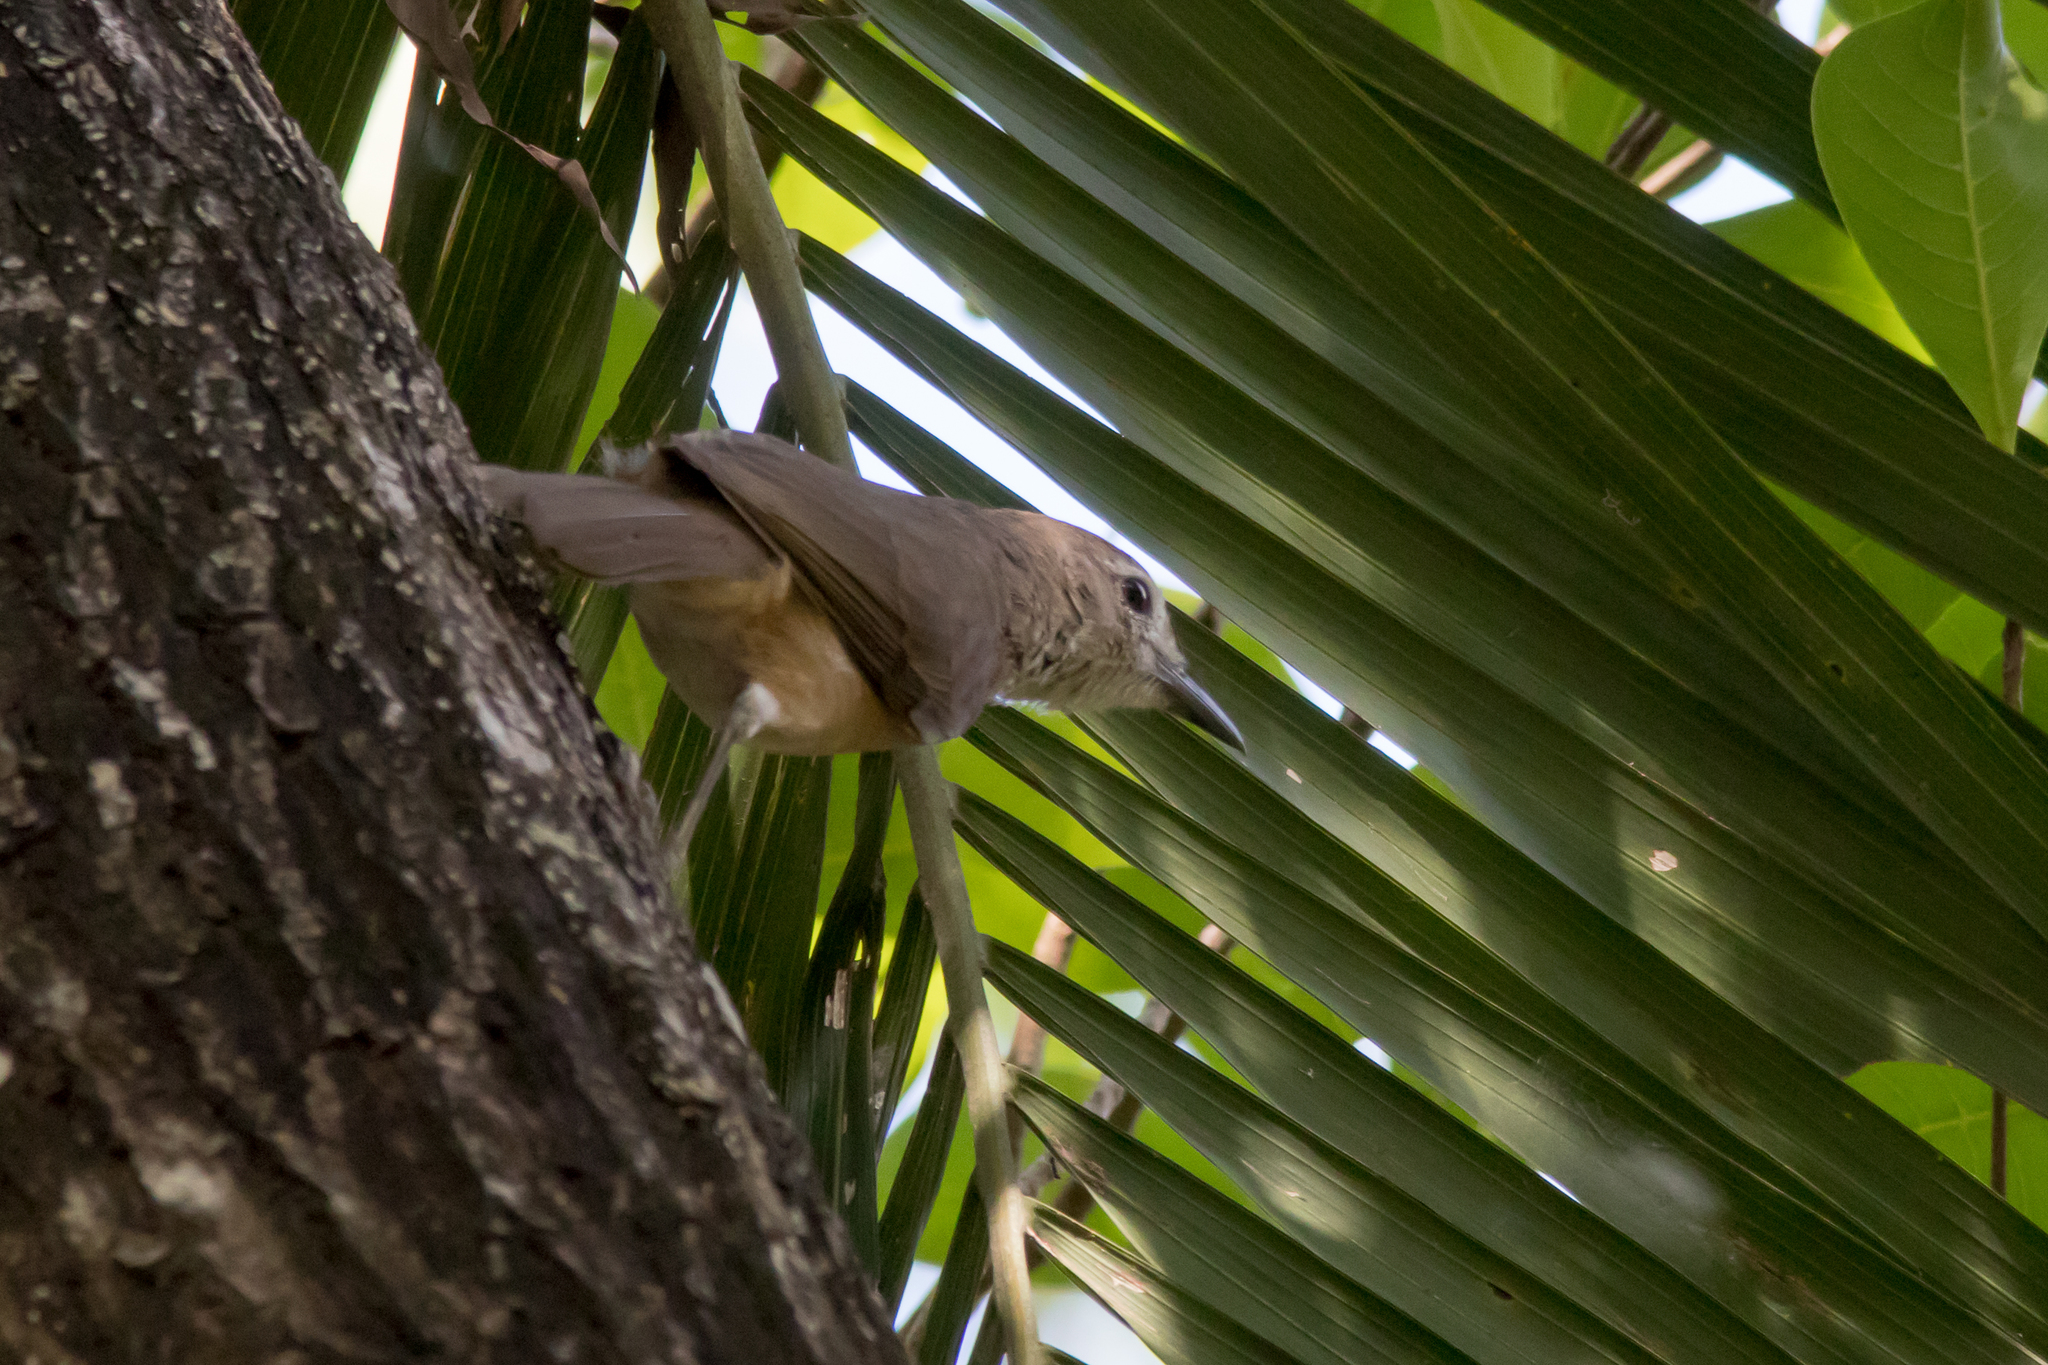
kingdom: Animalia
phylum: Chordata
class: Aves
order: Passeriformes
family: Pachycephalidae
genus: Colluricincla
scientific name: Colluricincla megarhyncha
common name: Little shrikethrush
